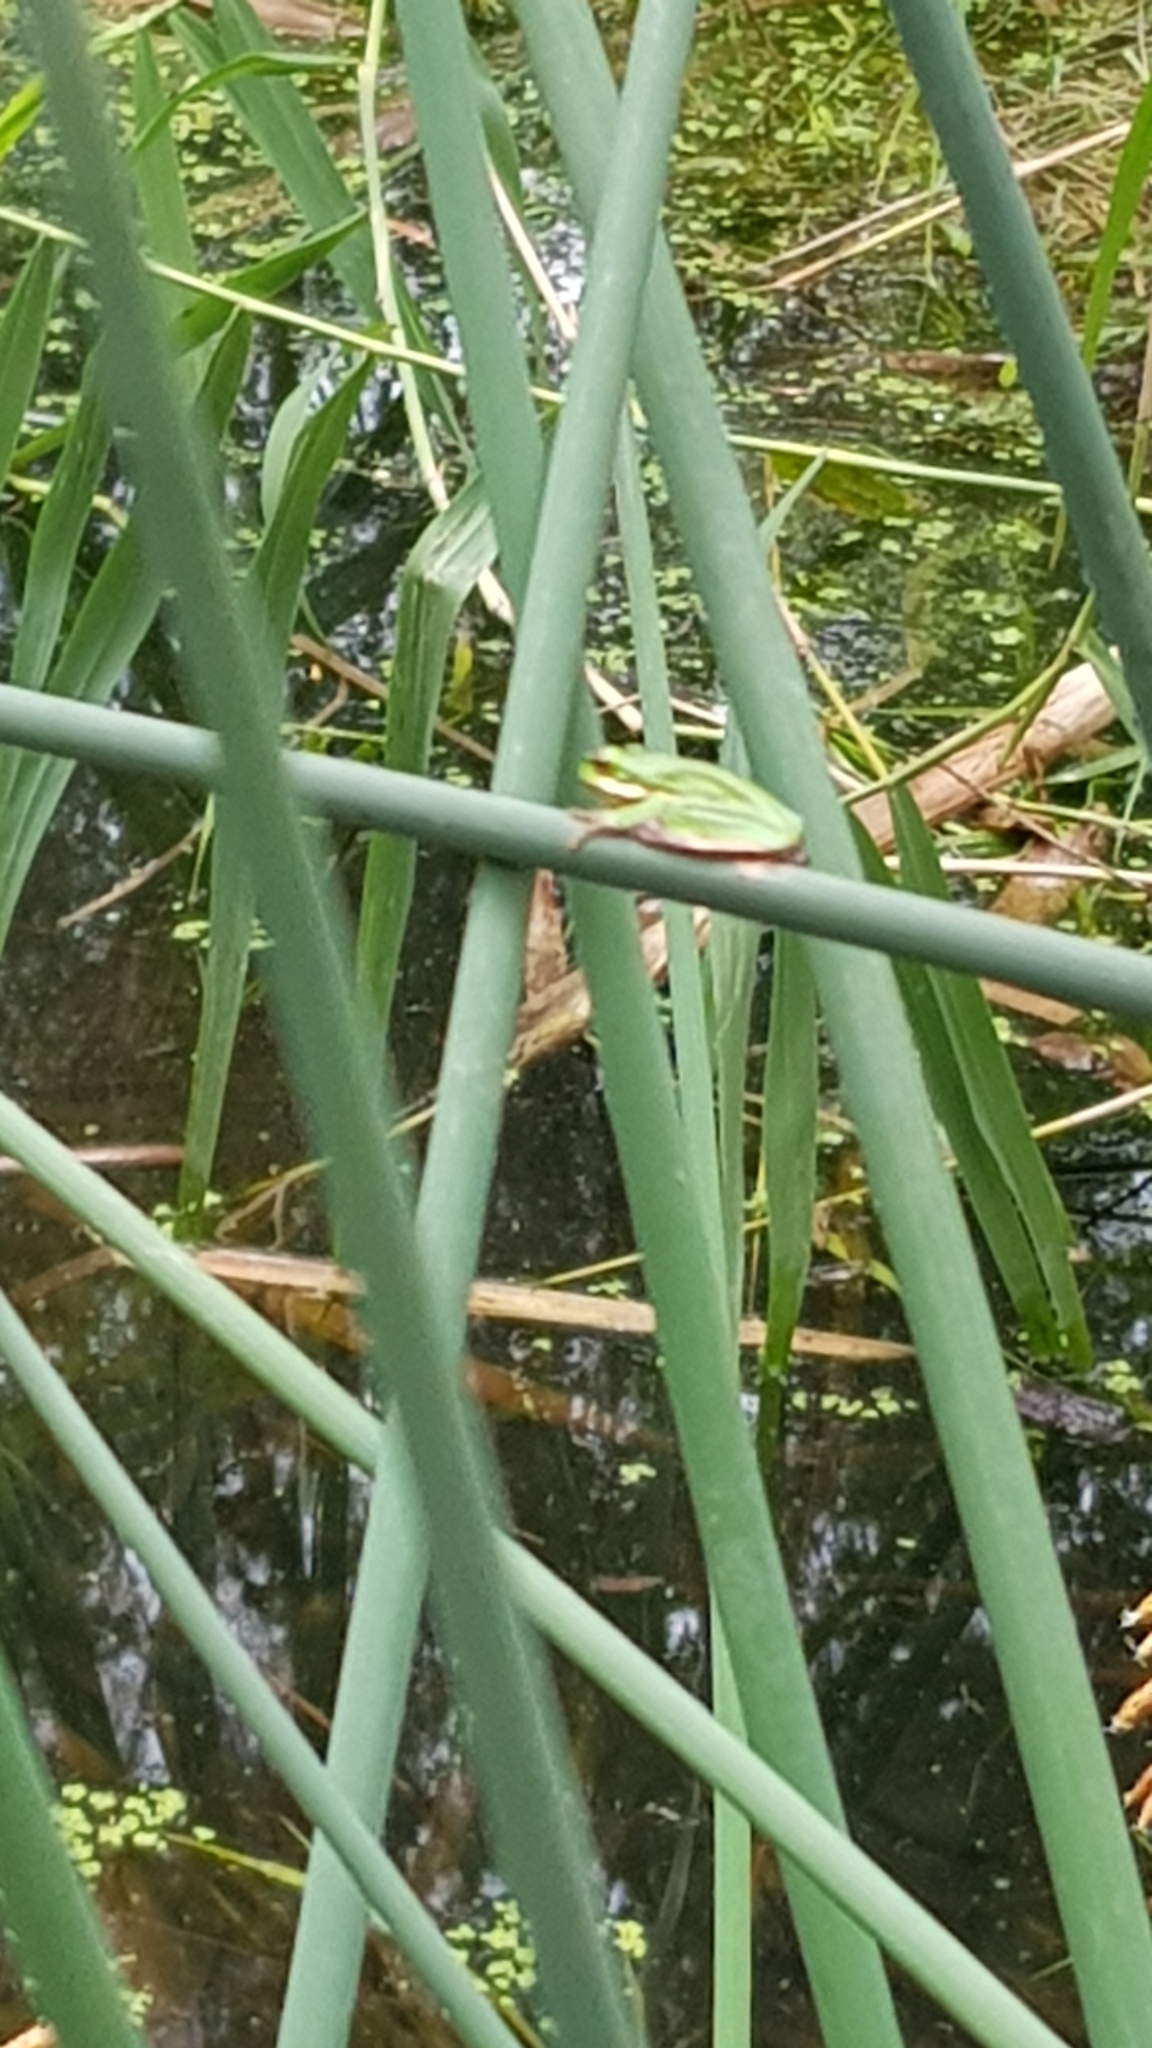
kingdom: Animalia
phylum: Chordata
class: Amphibia
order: Anura
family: Pelodryadidae
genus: Litoria
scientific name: Litoria fallax
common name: Eastern dwarf treefrog
